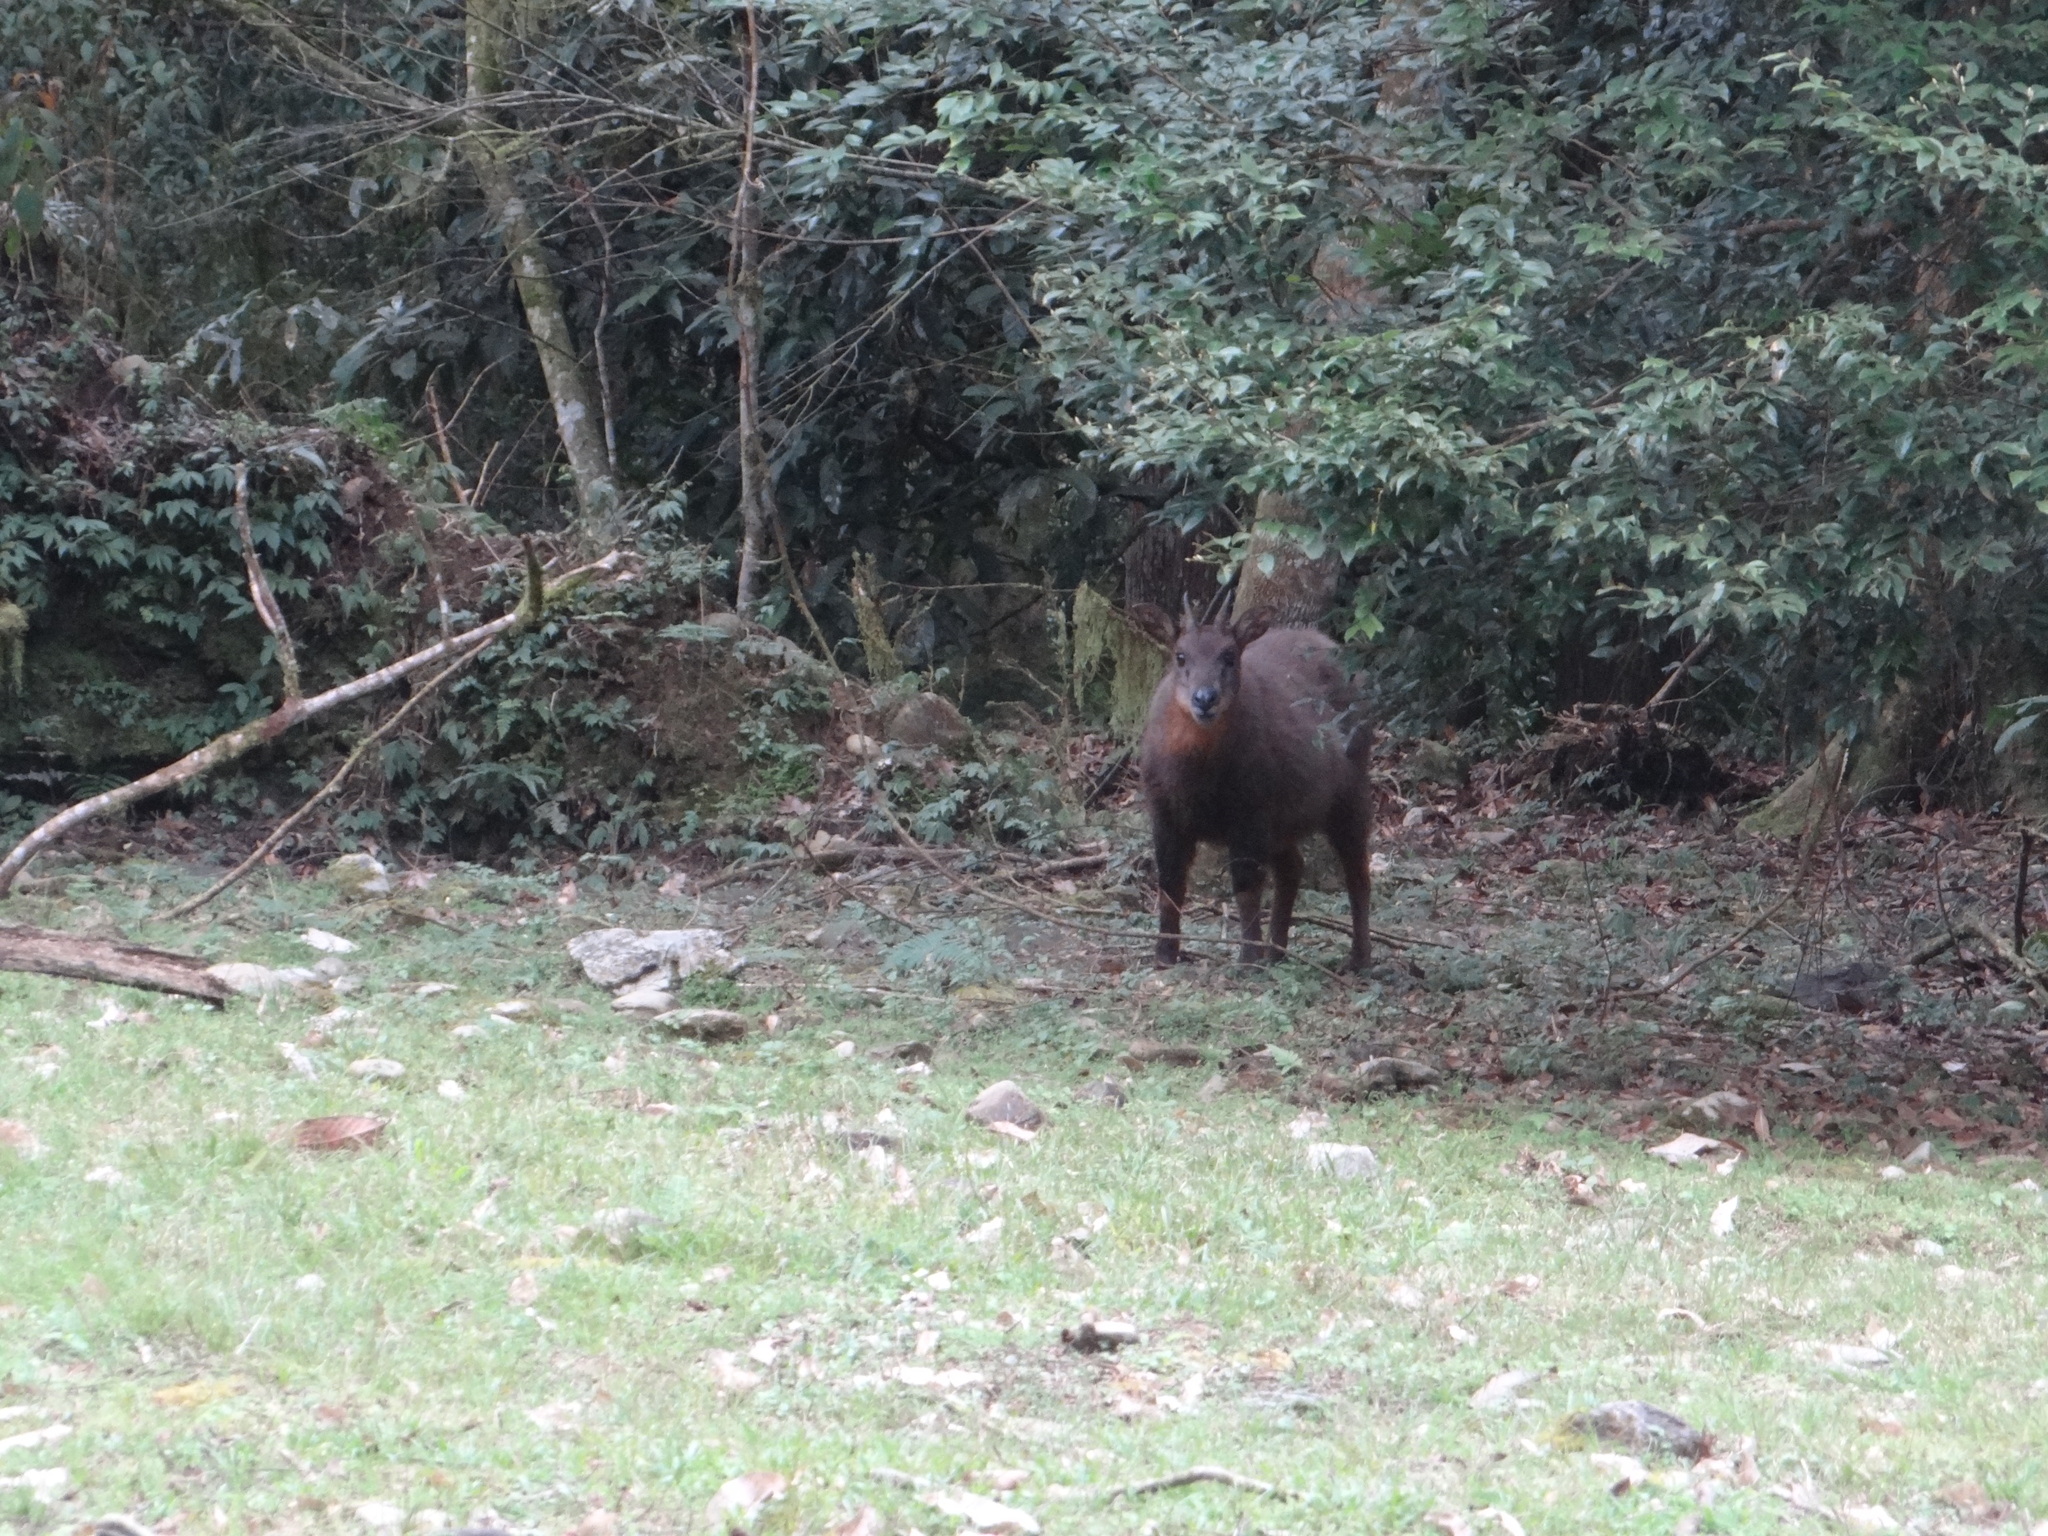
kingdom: Animalia
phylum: Chordata
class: Mammalia
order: Artiodactyla
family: Bovidae
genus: Capricornis
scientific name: Capricornis swinhoei
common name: Formosan serow
